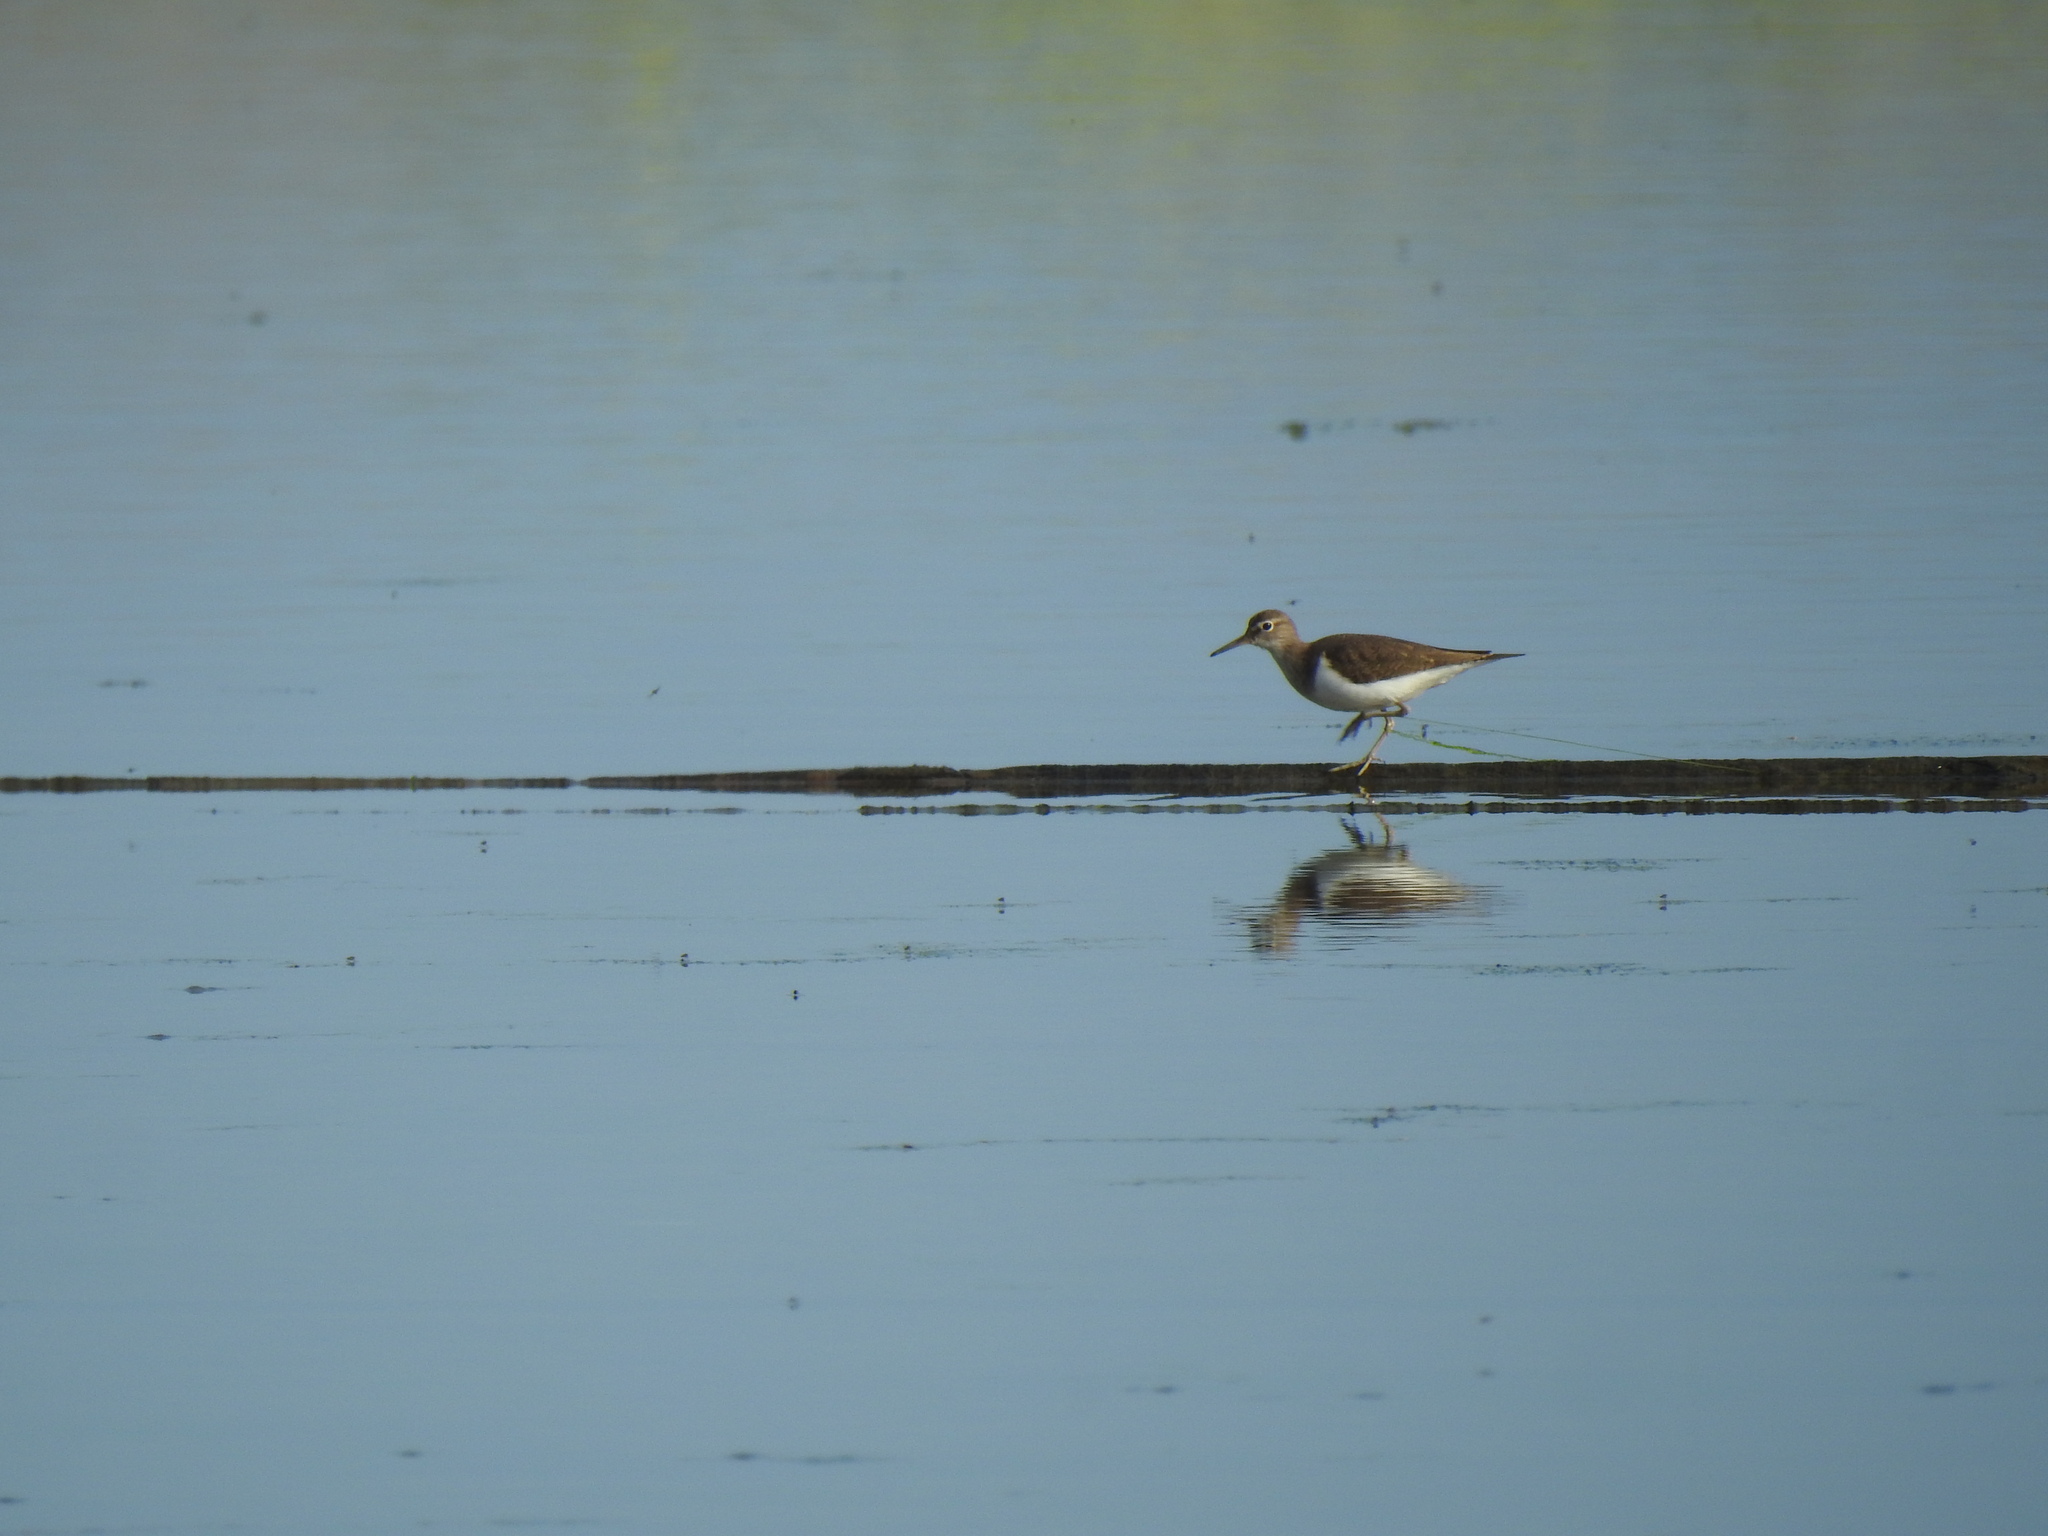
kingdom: Animalia
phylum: Chordata
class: Aves
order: Charadriiformes
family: Scolopacidae
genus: Actitis
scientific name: Actitis hypoleucos
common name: Common sandpiper
